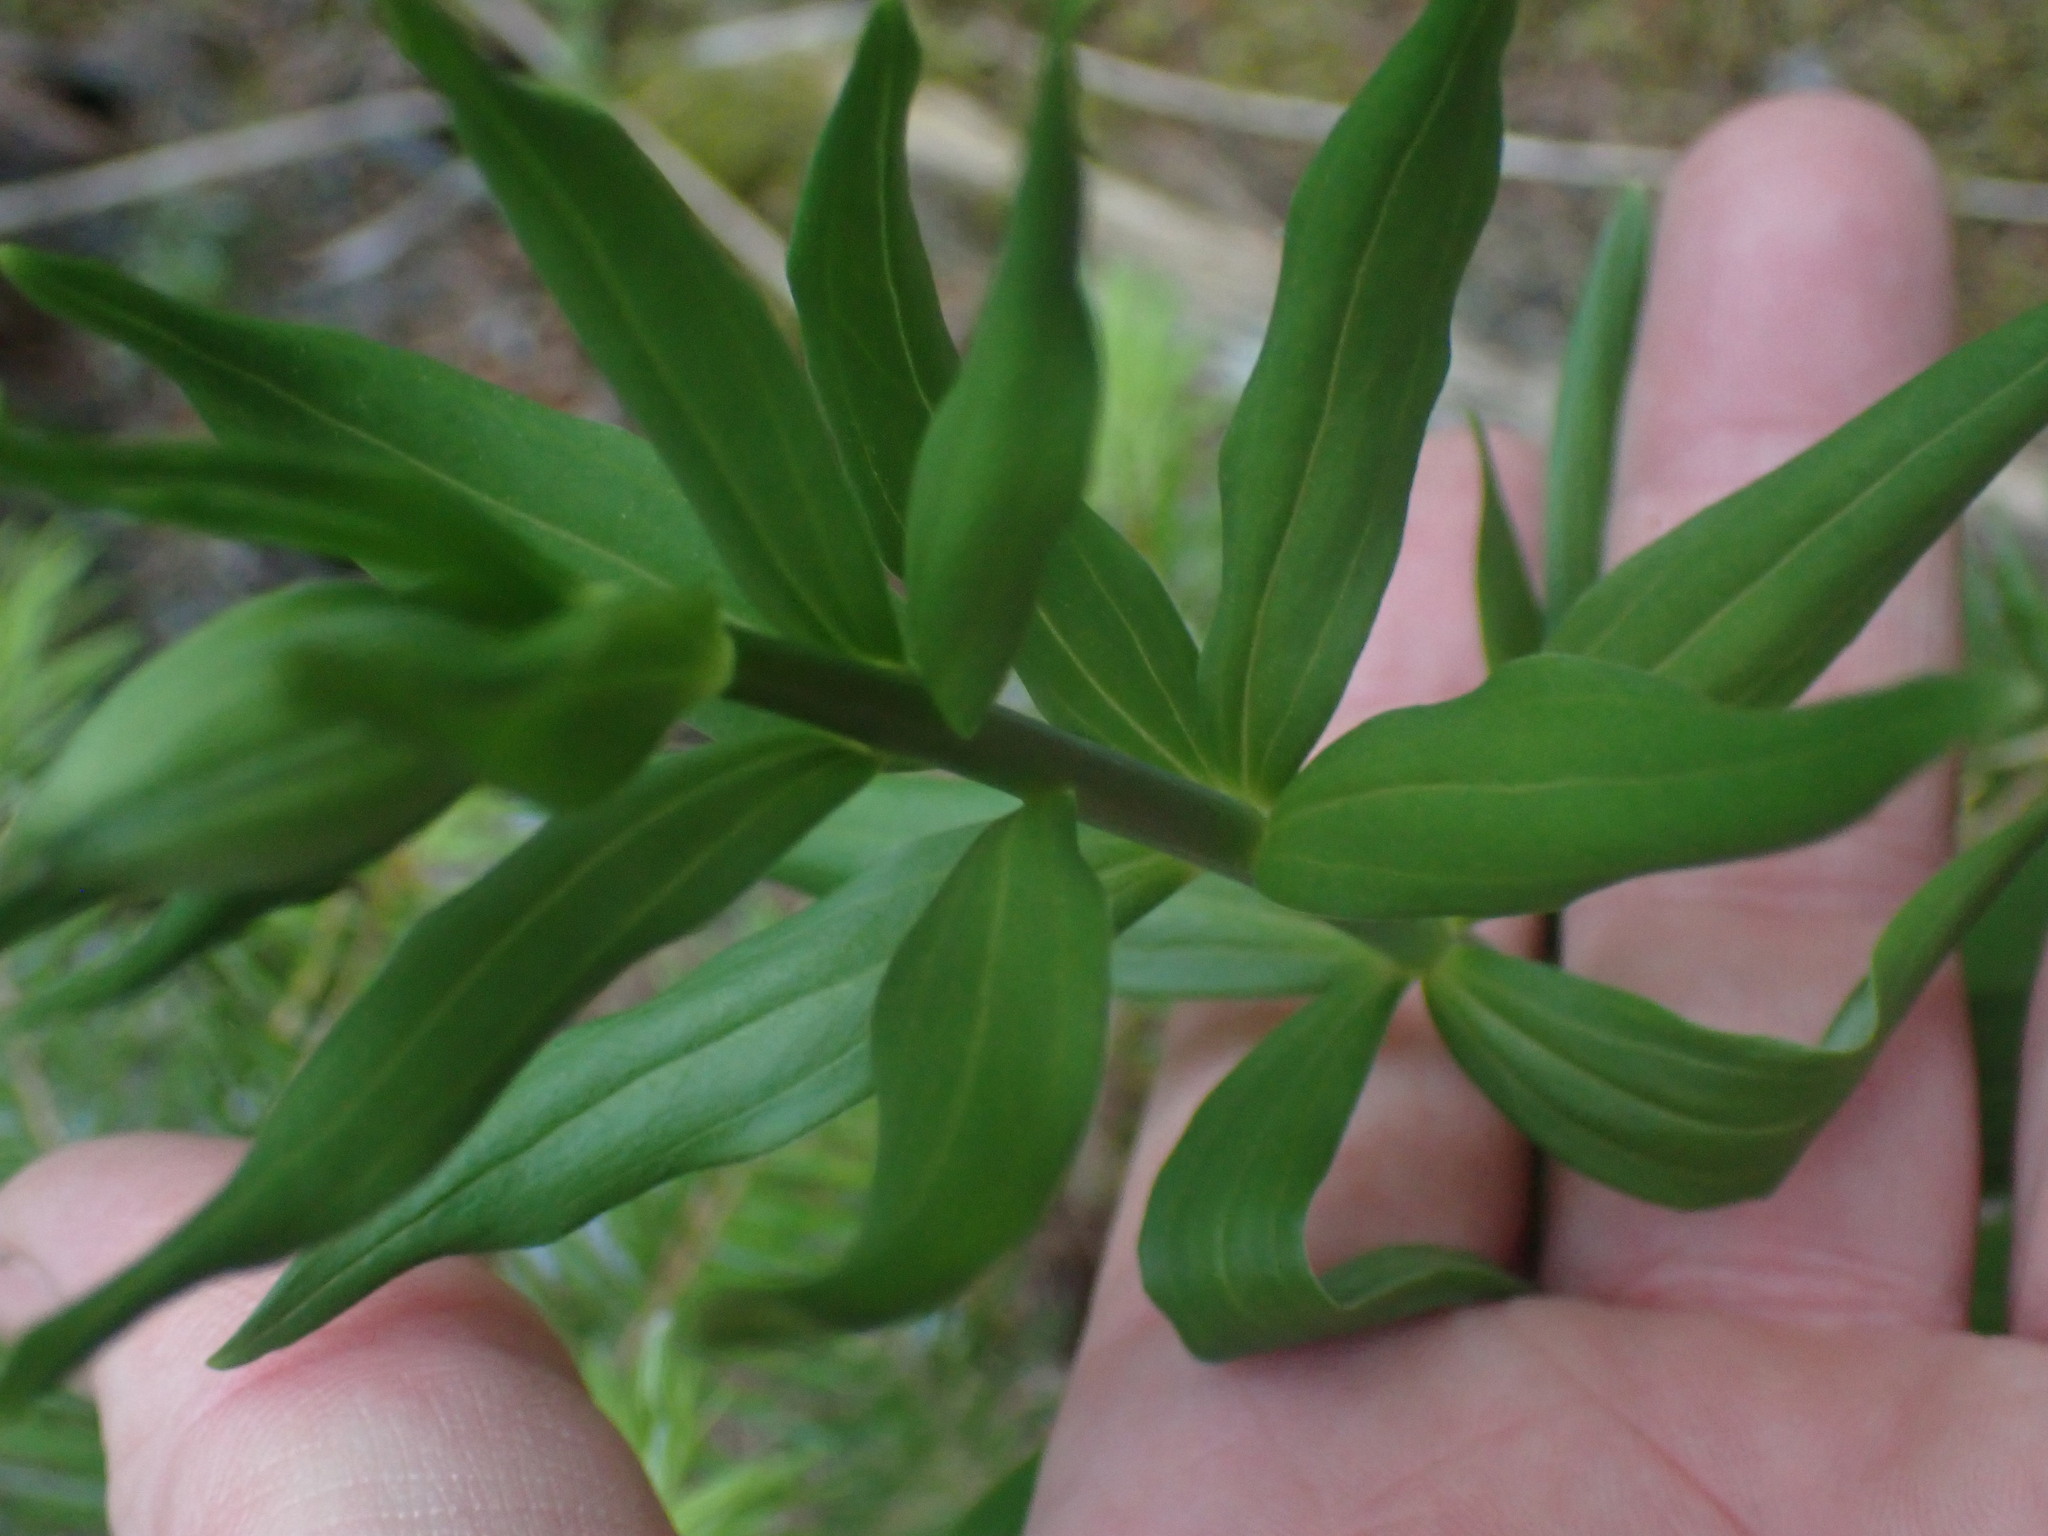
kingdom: Plantae
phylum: Tracheophyta
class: Liliopsida
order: Liliales
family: Liliaceae
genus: Lilium
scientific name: Lilium columbianum
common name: Columbia lily
